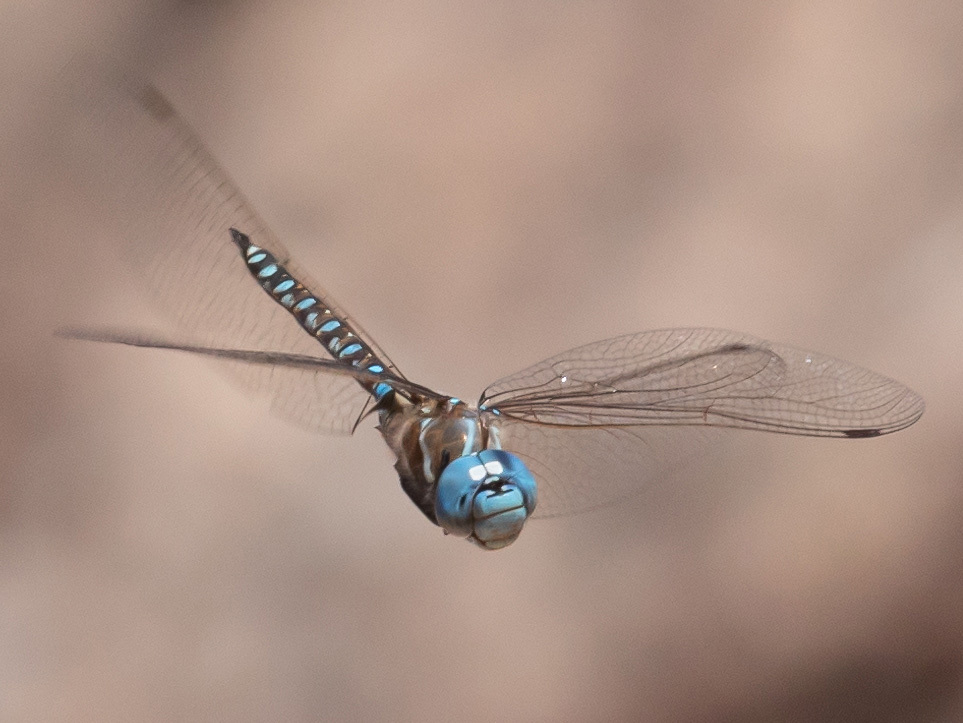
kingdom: Animalia
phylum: Arthropoda
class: Insecta
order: Odonata
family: Aeshnidae
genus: Rhionaeschna
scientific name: Rhionaeschna multicolor
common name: Blue-eyed darner
